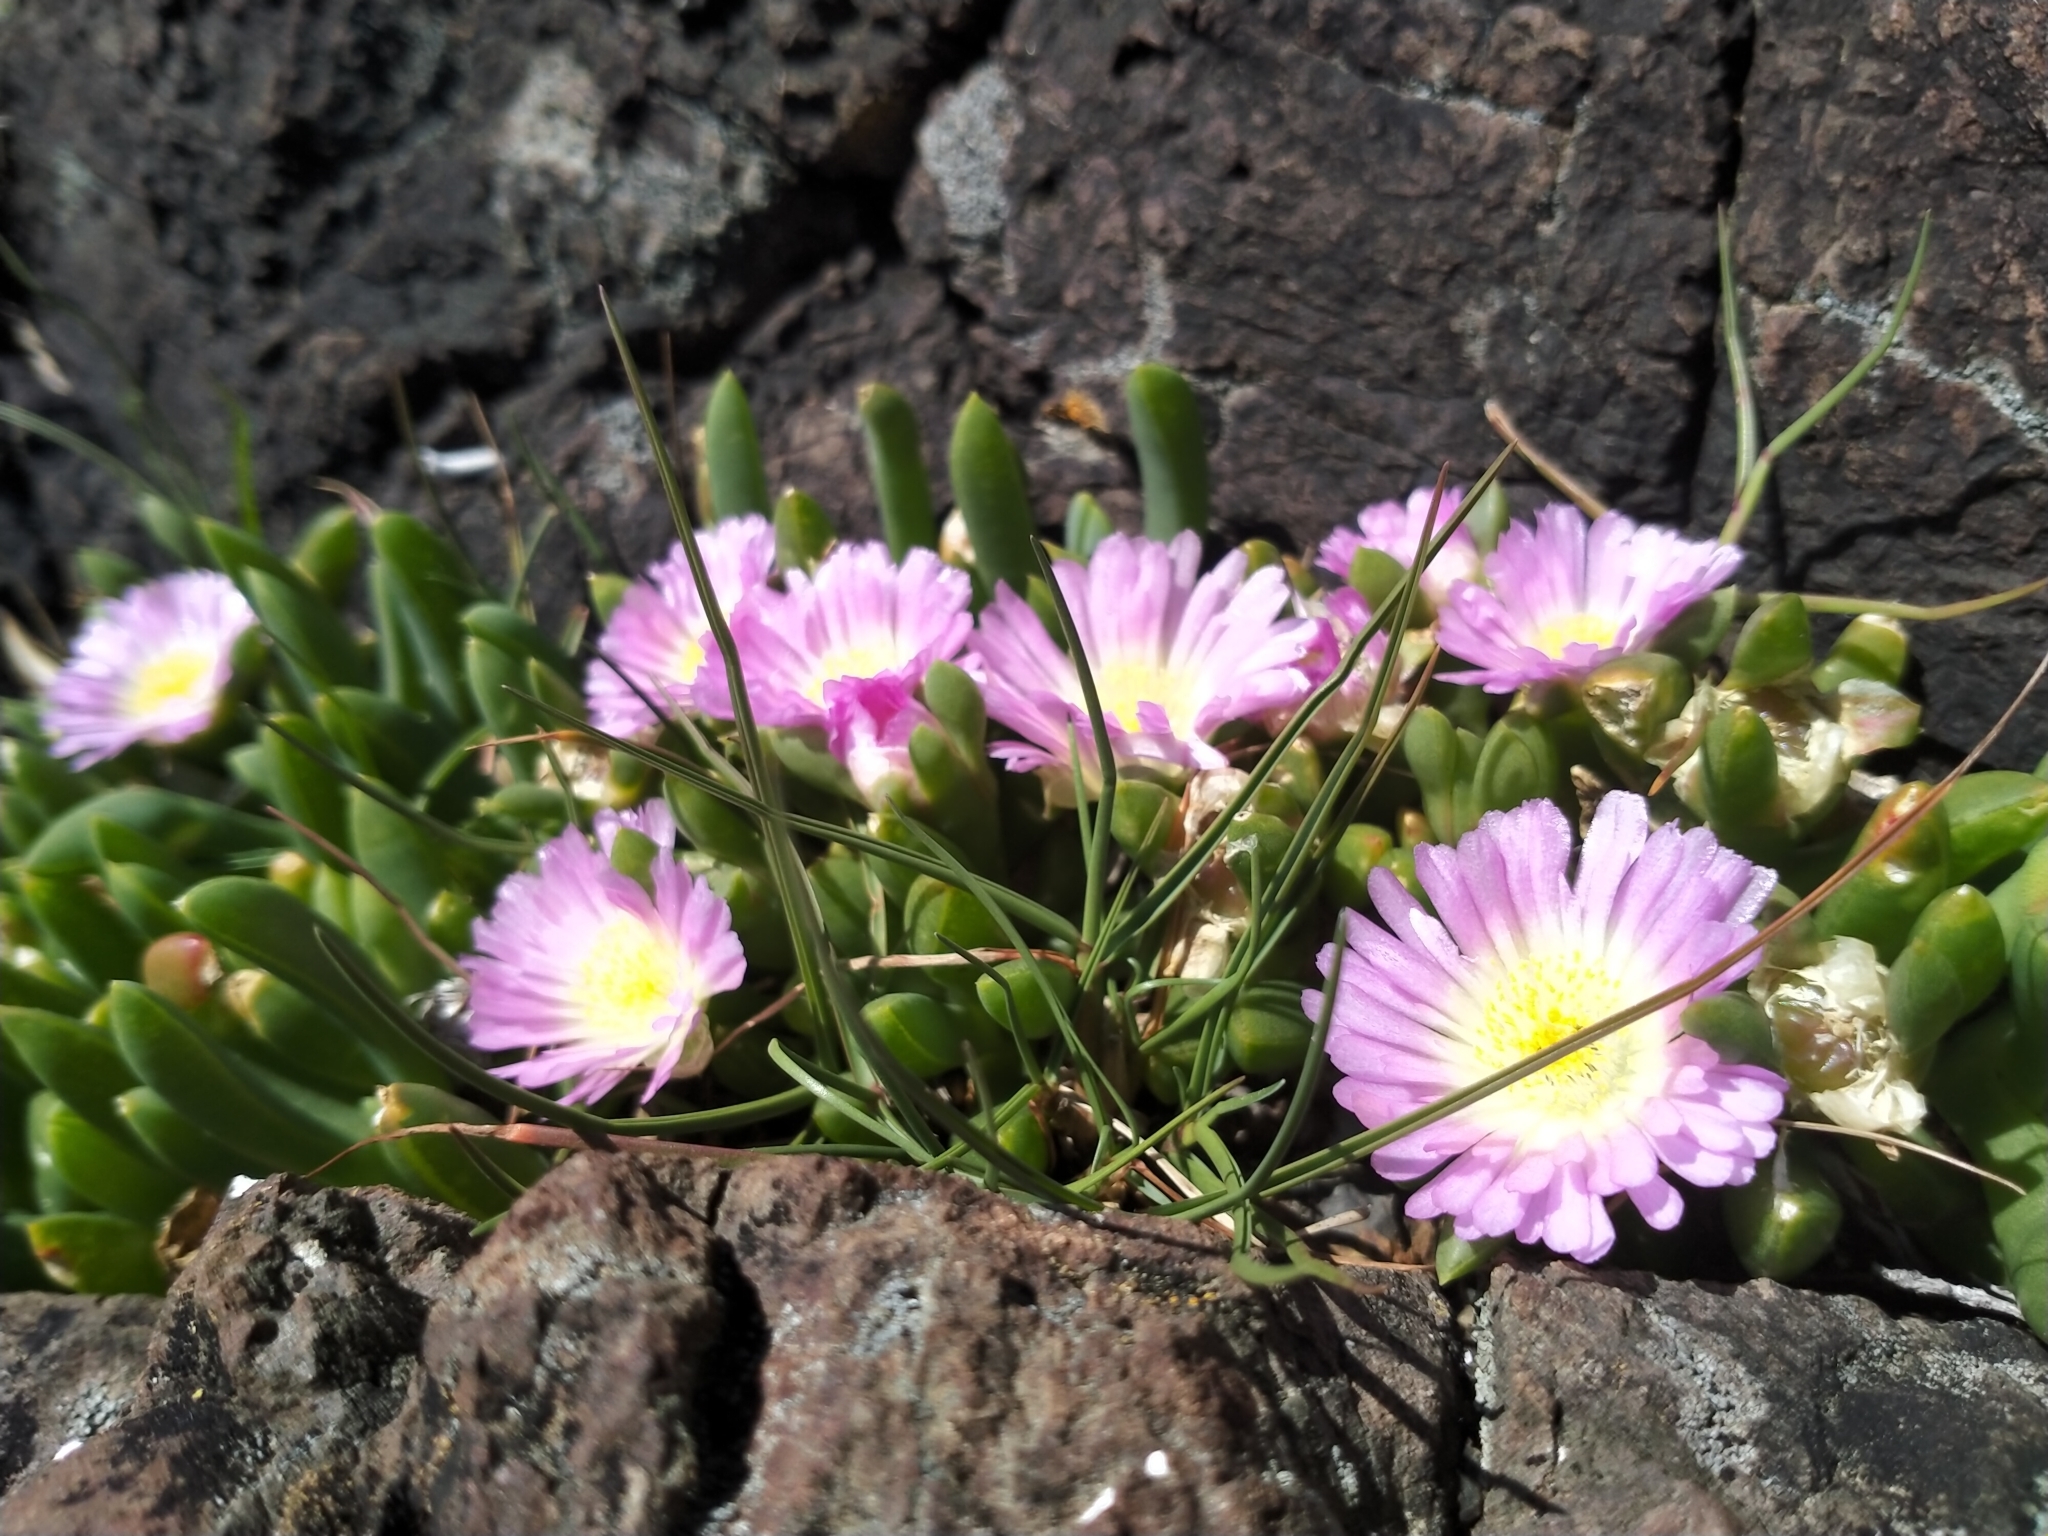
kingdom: Plantae
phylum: Tracheophyta
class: Magnoliopsida
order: Caryophyllales
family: Aizoaceae
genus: Disphyma
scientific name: Disphyma australe
